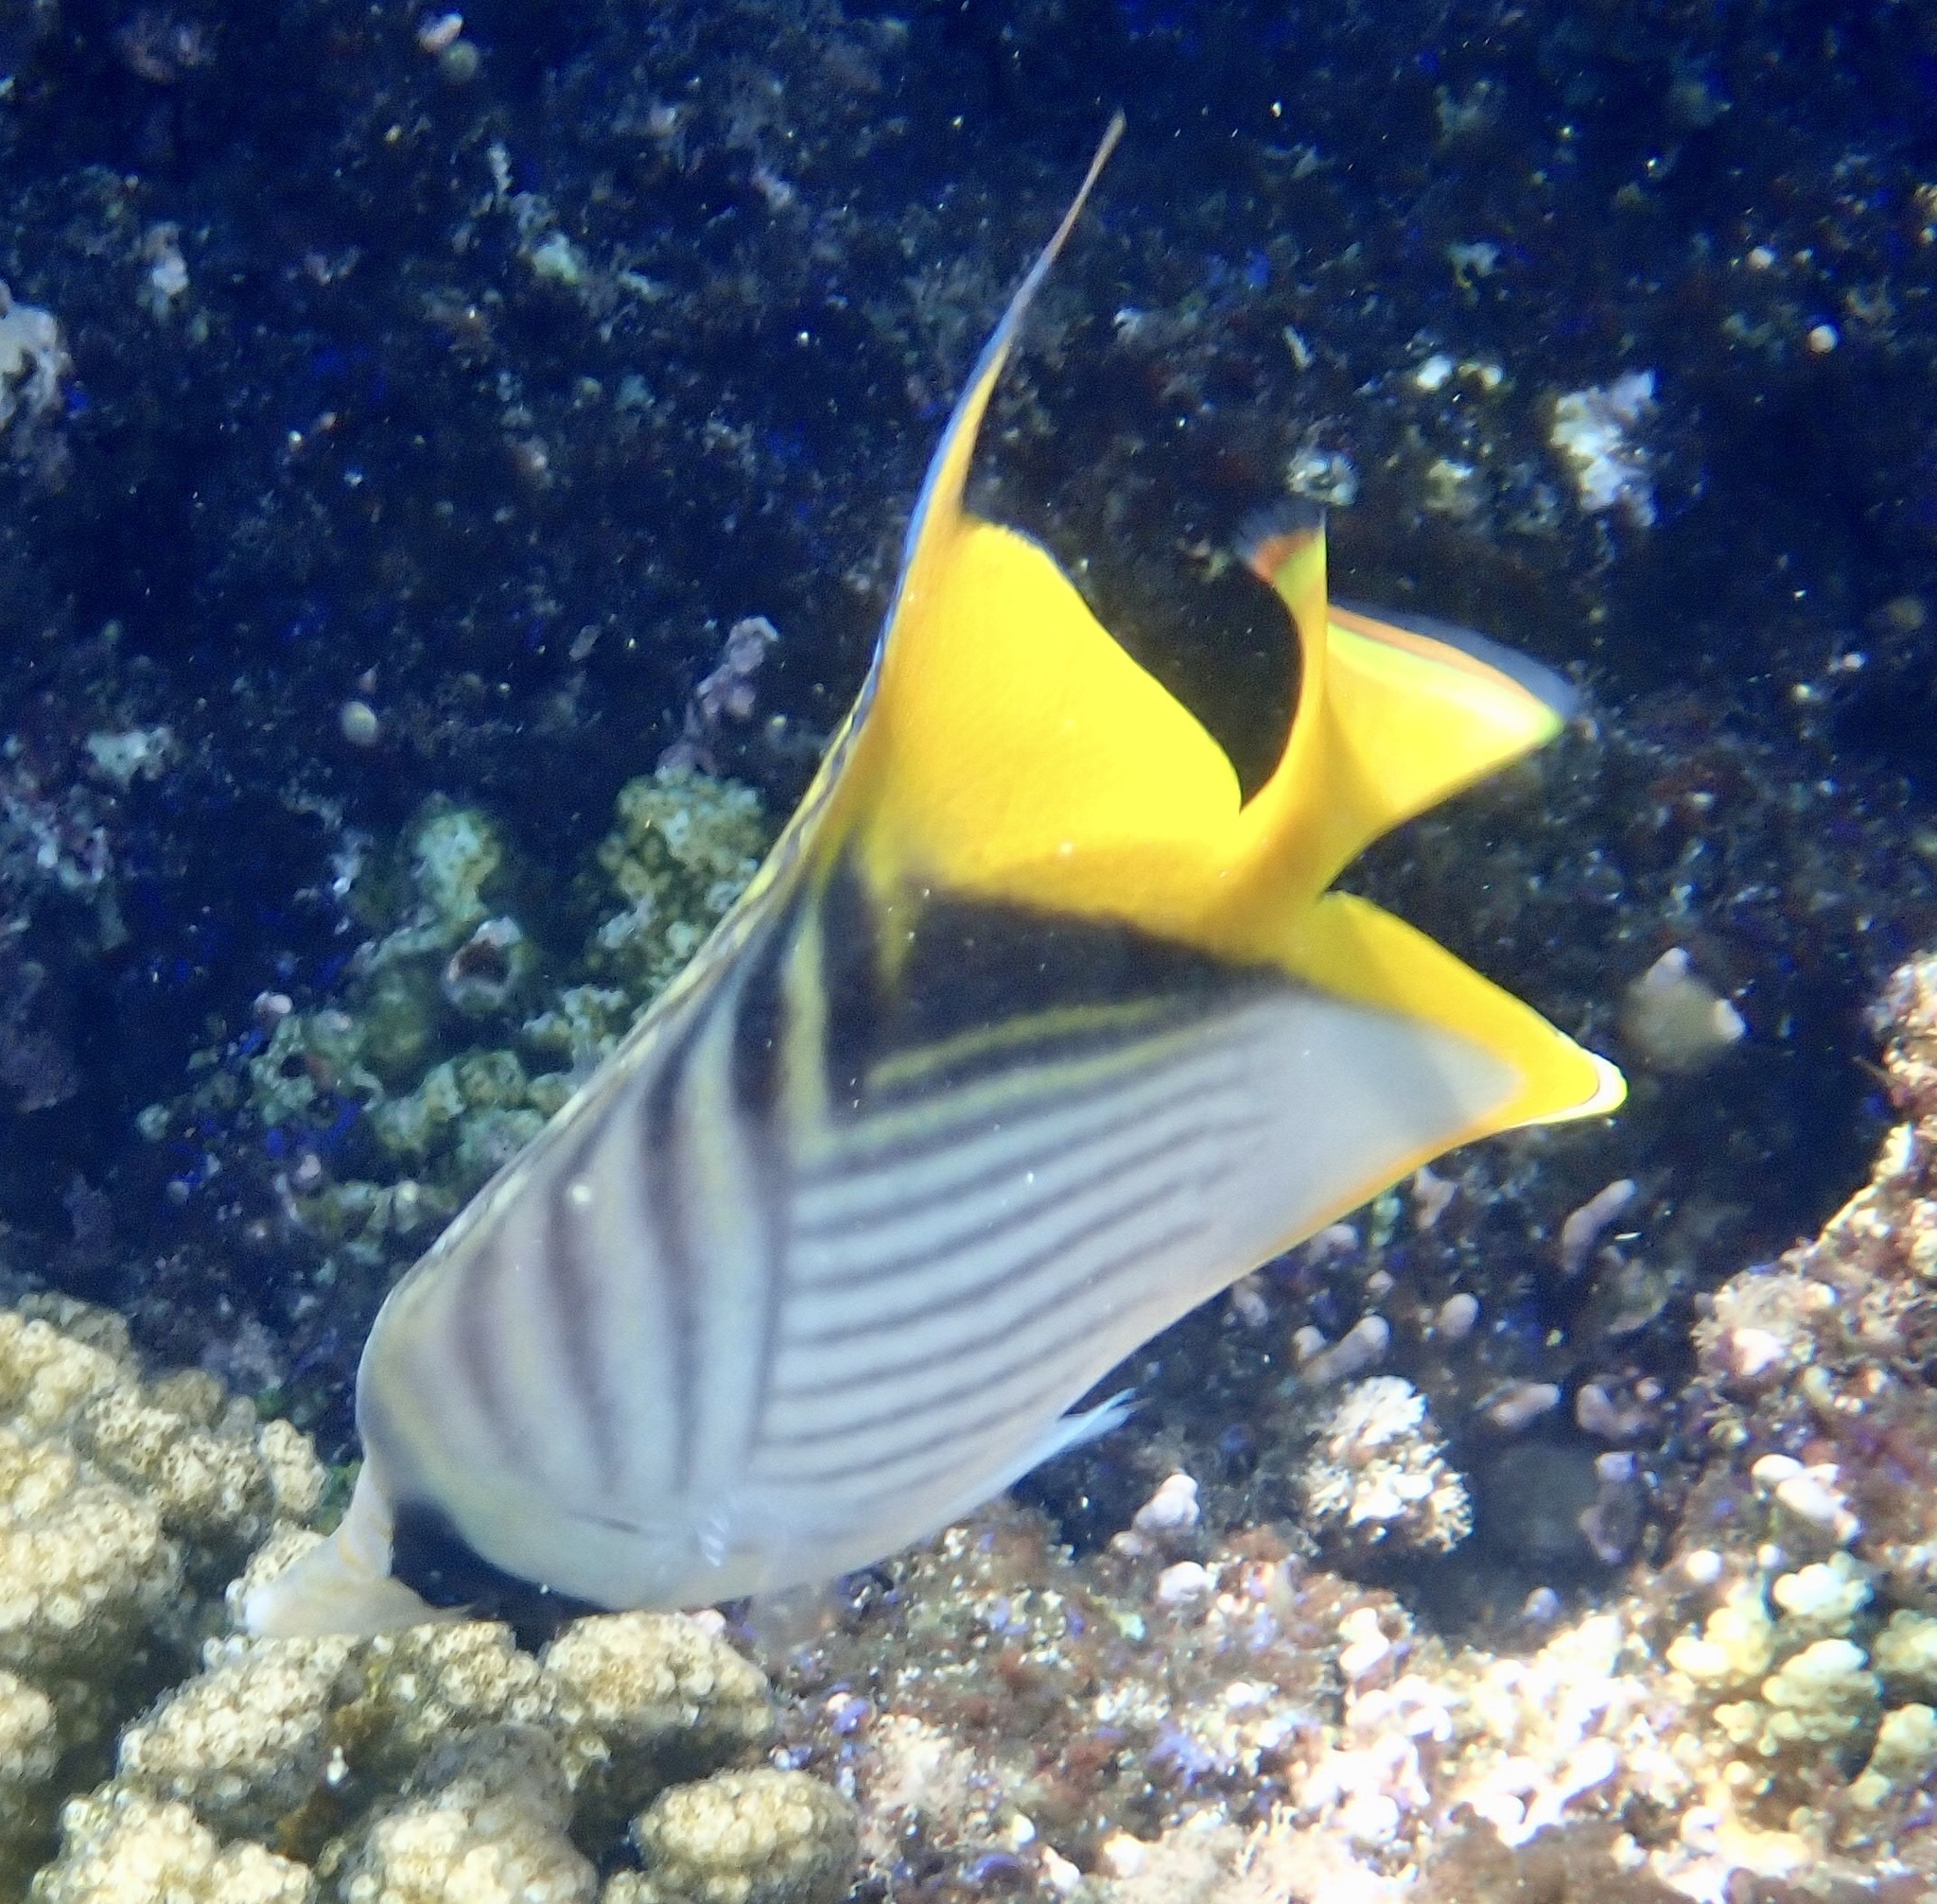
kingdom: Animalia
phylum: Chordata
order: Perciformes
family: Chaetodontidae
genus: Chaetodon
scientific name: Chaetodon auriga
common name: Threadfin butterflyfish
